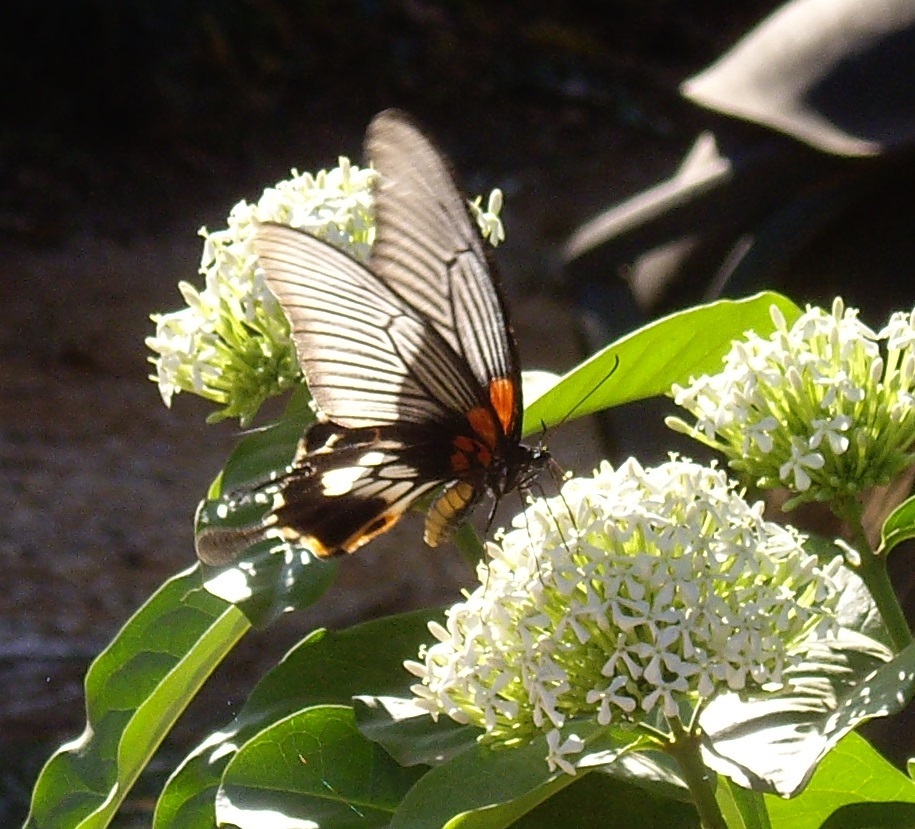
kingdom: Animalia
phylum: Arthropoda
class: Insecta
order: Lepidoptera
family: Papilionidae
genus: Papilio
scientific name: Papilio memnon
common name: Great mormon
